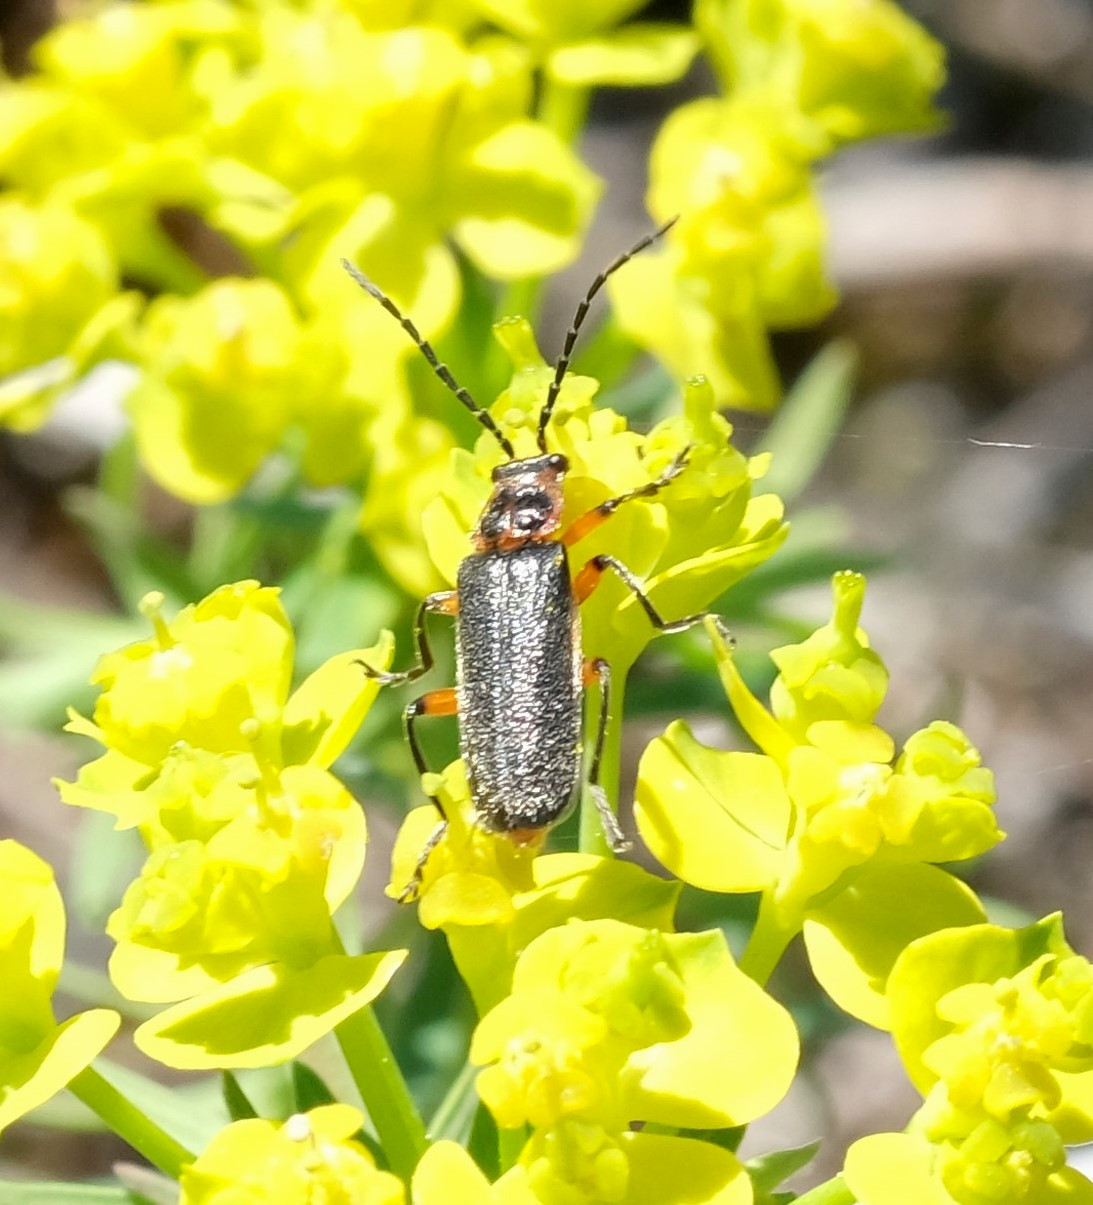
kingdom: Animalia
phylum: Arthropoda
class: Insecta
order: Coleoptera
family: Cantharidae
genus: Atalantycha
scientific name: Atalantycha bilineata
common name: Two-lined leatherwing
